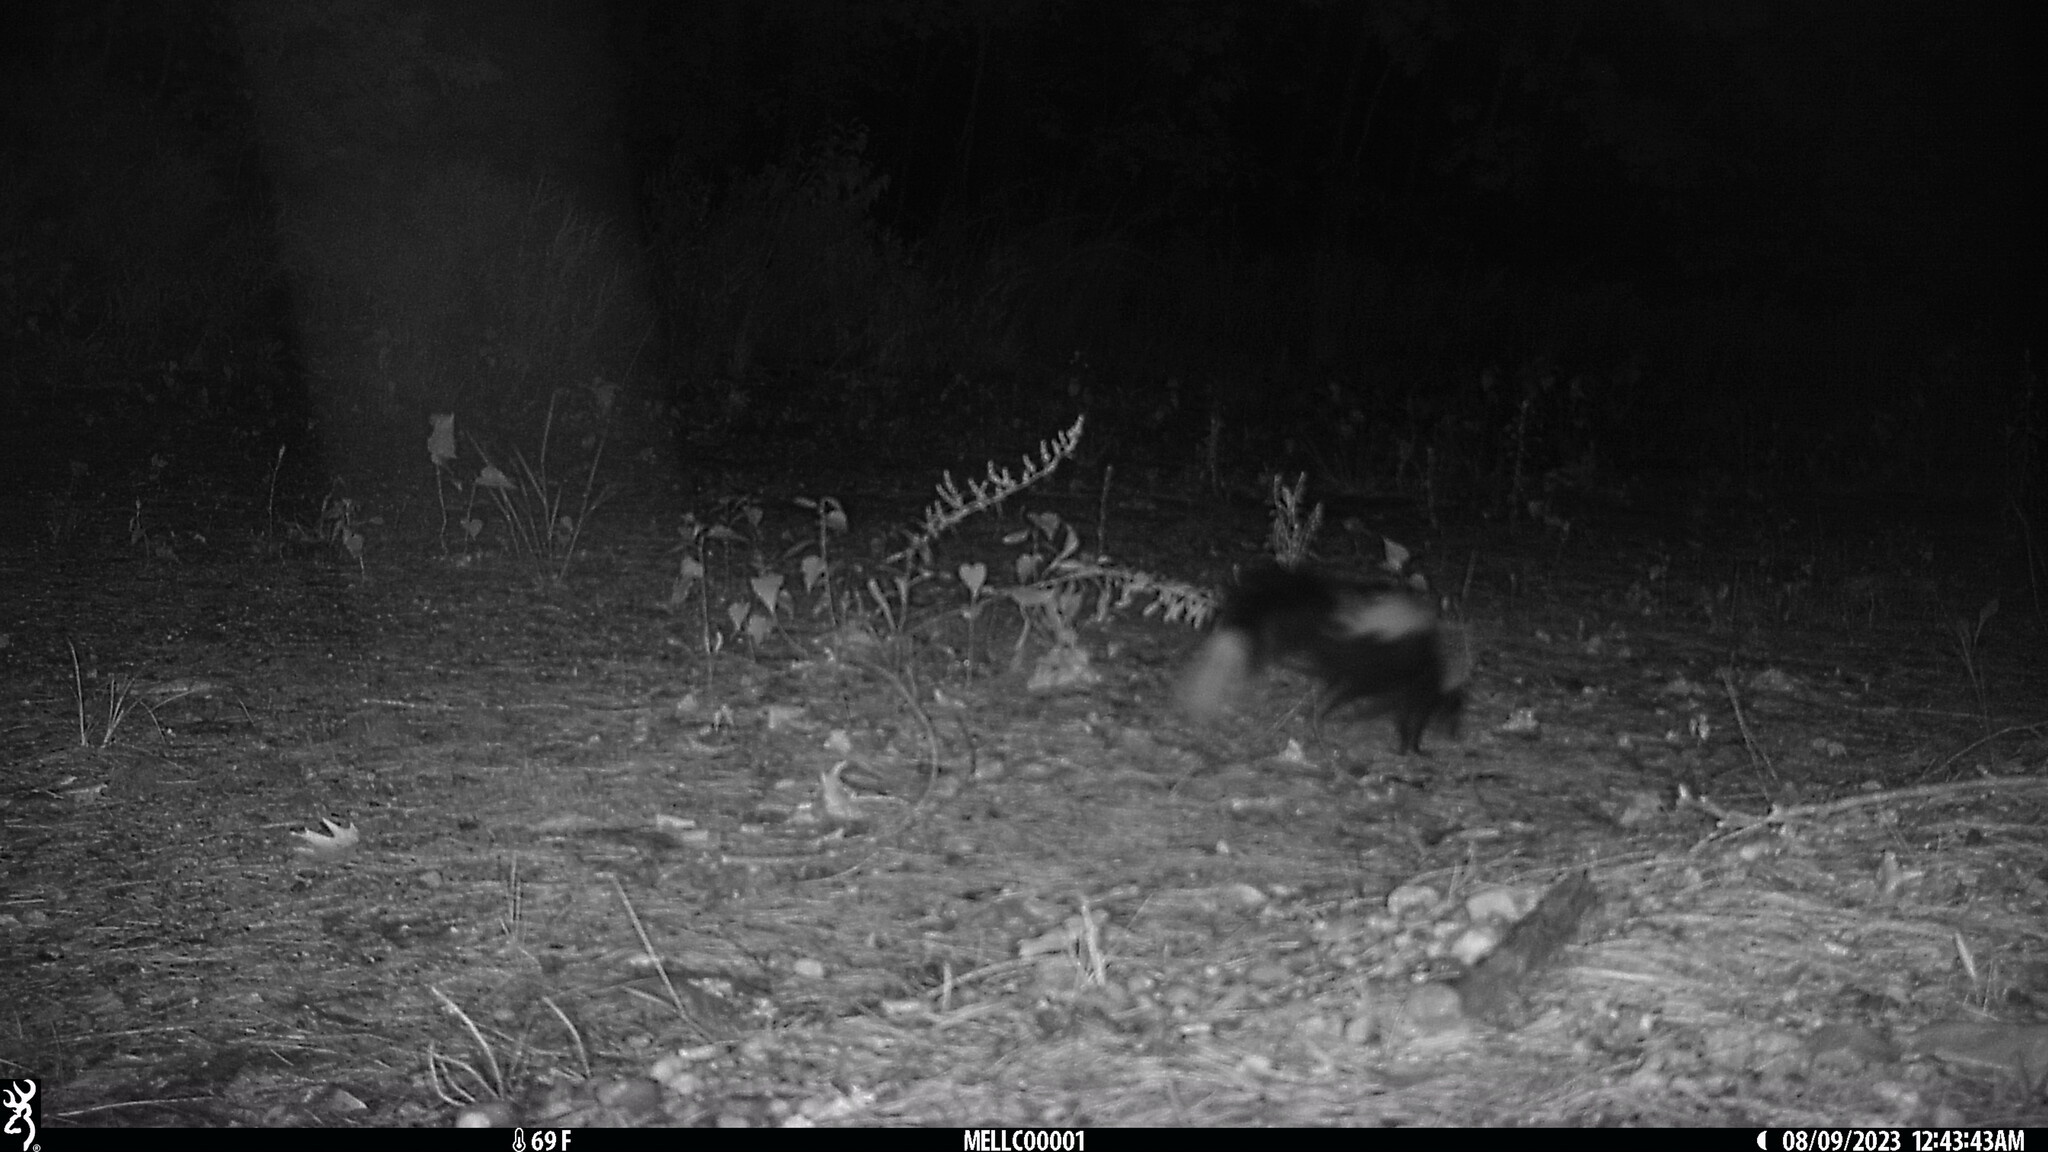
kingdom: Animalia
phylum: Chordata
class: Mammalia
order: Carnivora
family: Mephitidae
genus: Mephitis
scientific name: Mephitis mephitis
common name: Striped skunk
